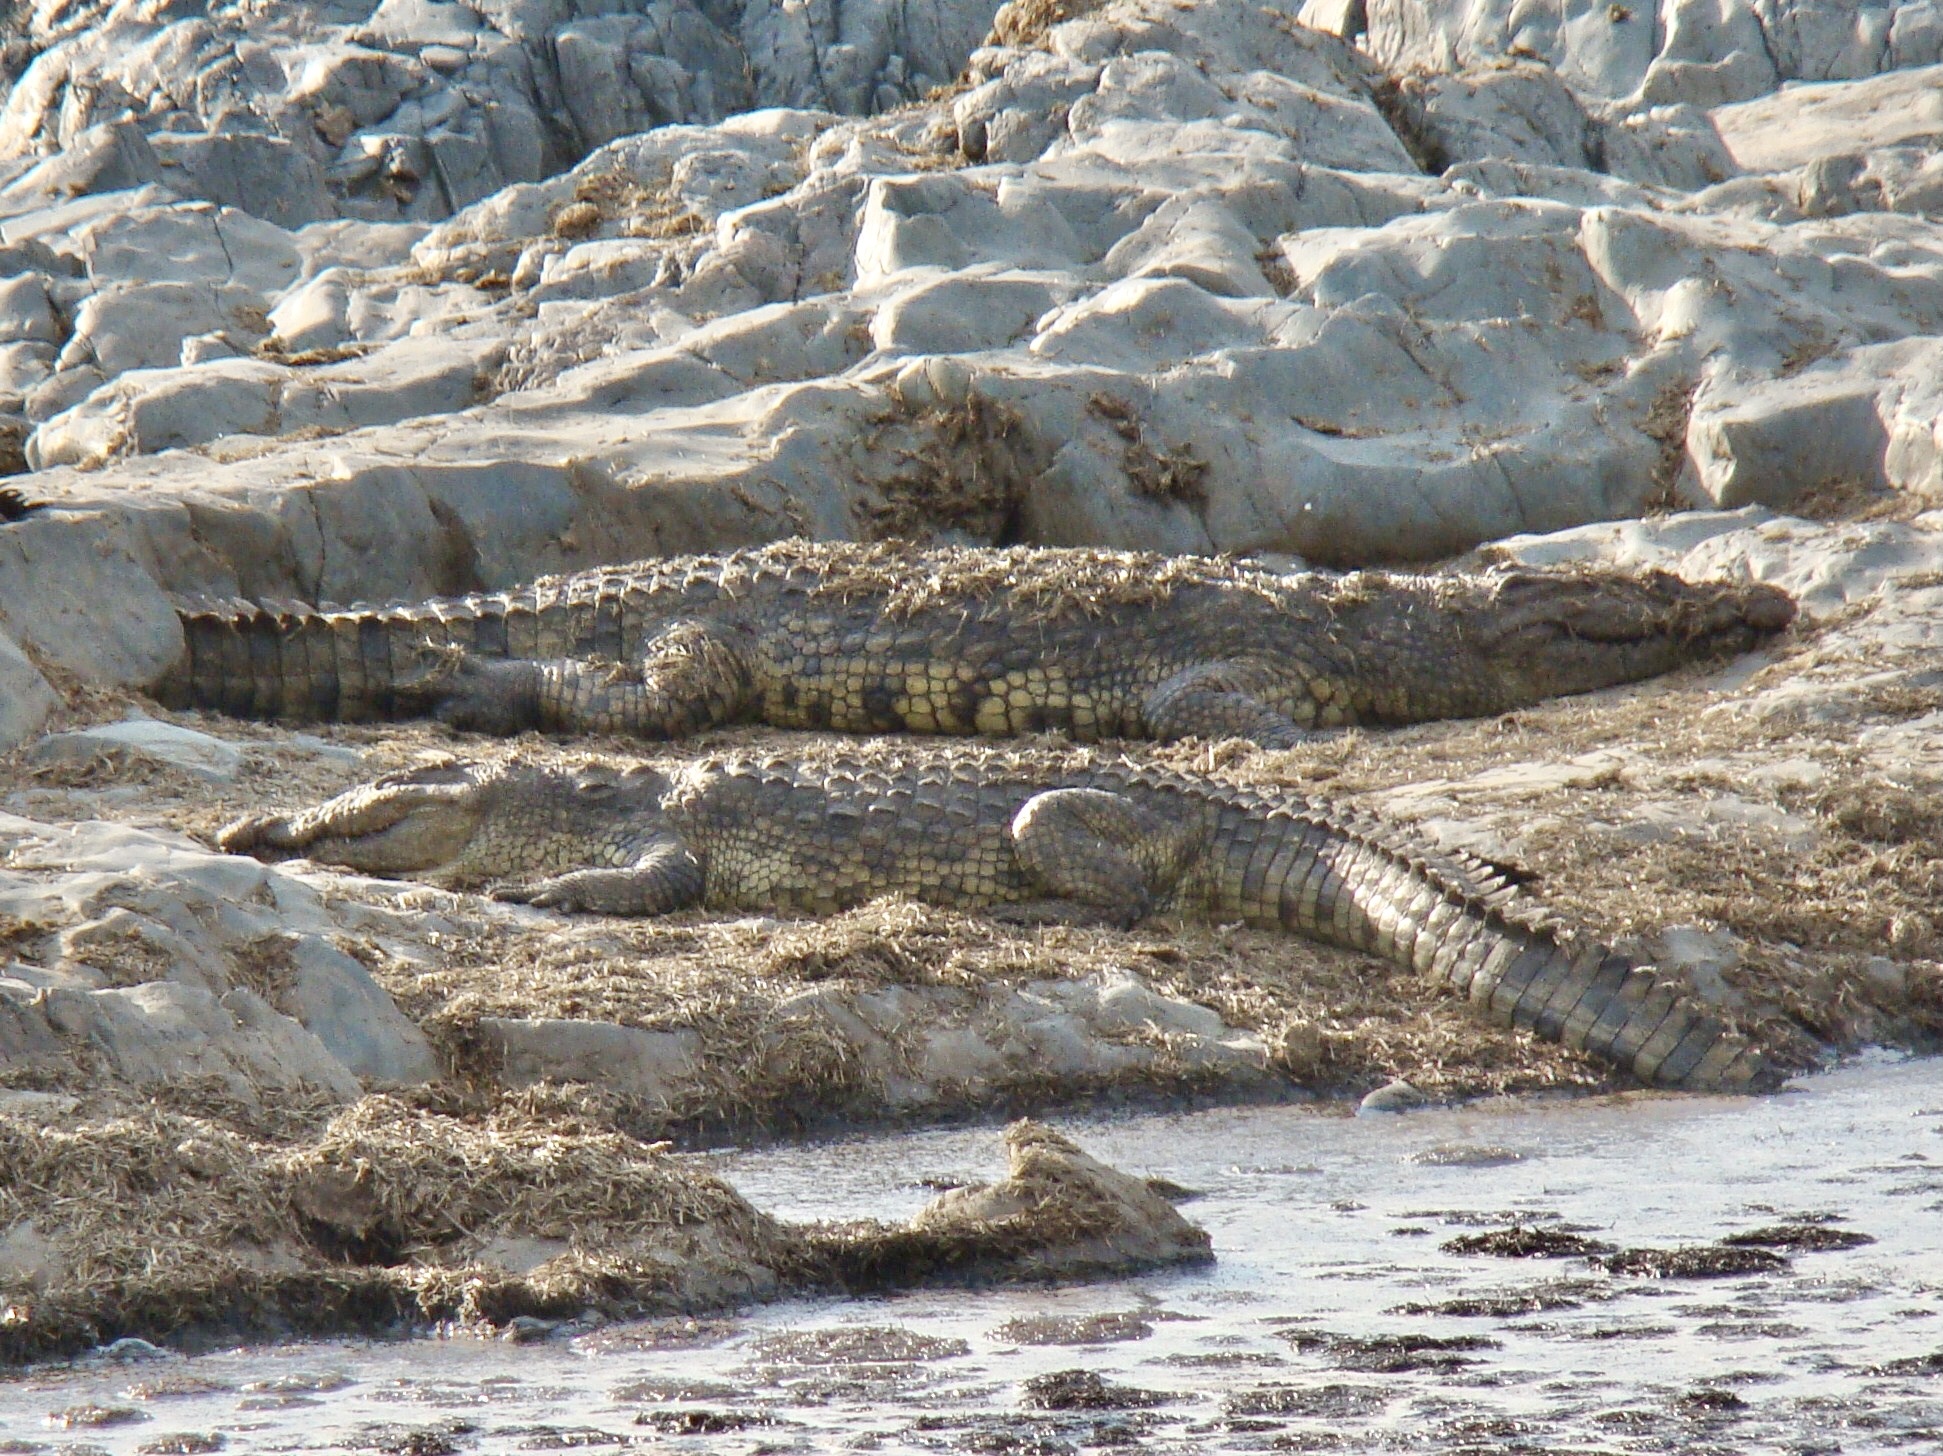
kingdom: Animalia
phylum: Chordata
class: Crocodylia
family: Crocodylidae
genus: Crocodylus
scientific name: Crocodylus niloticus
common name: Nile crocodile
